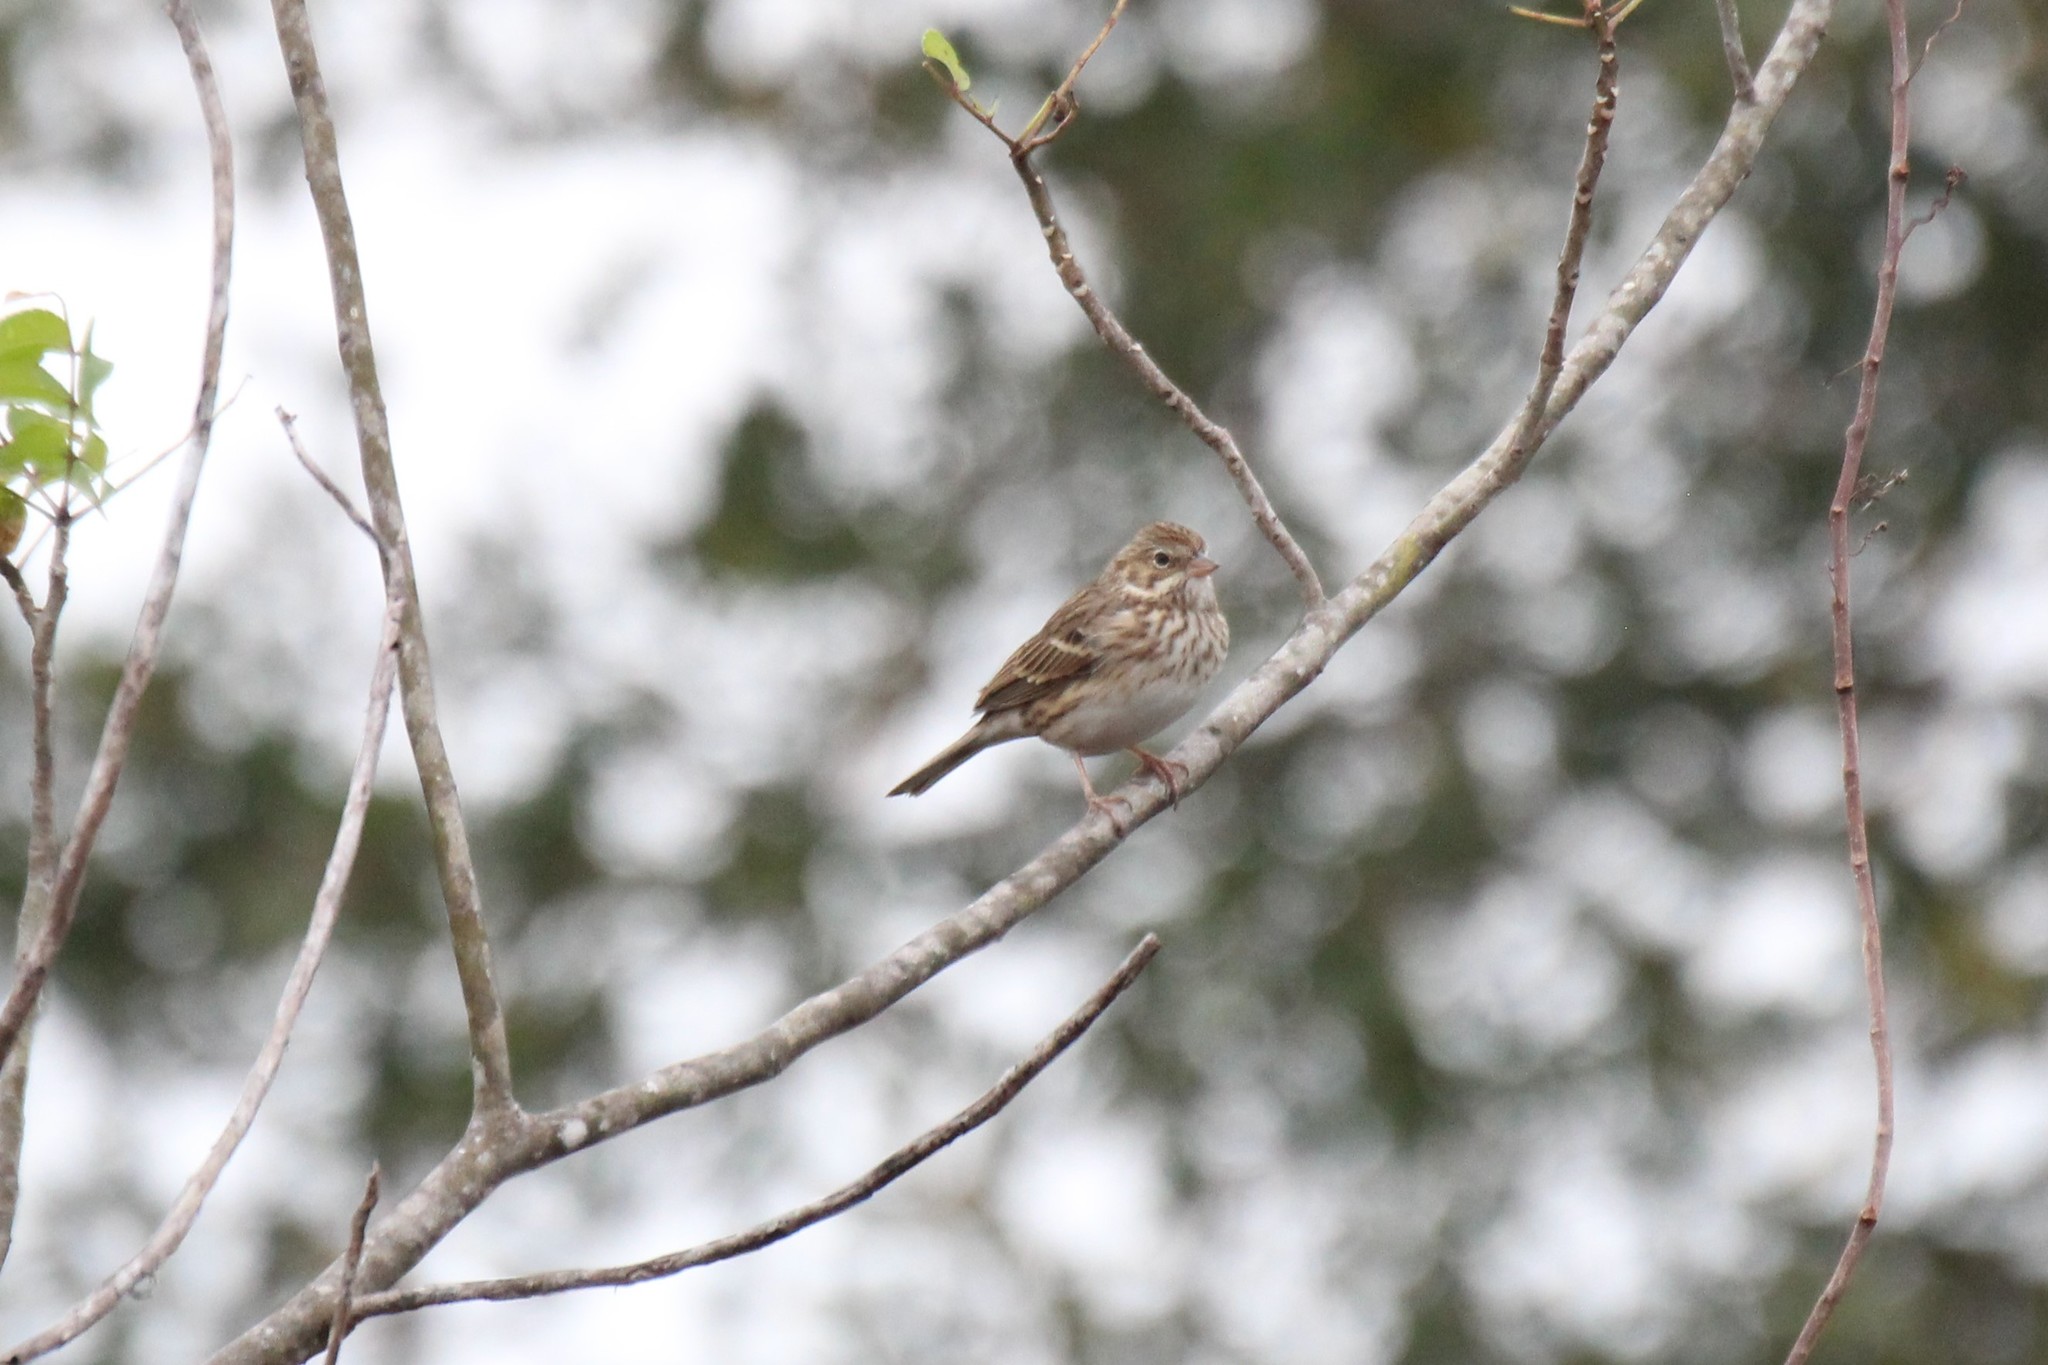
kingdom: Animalia
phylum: Chordata
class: Aves
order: Passeriformes
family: Passerellidae
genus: Pooecetes
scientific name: Pooecetes gramineus
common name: Vesper sparrow
